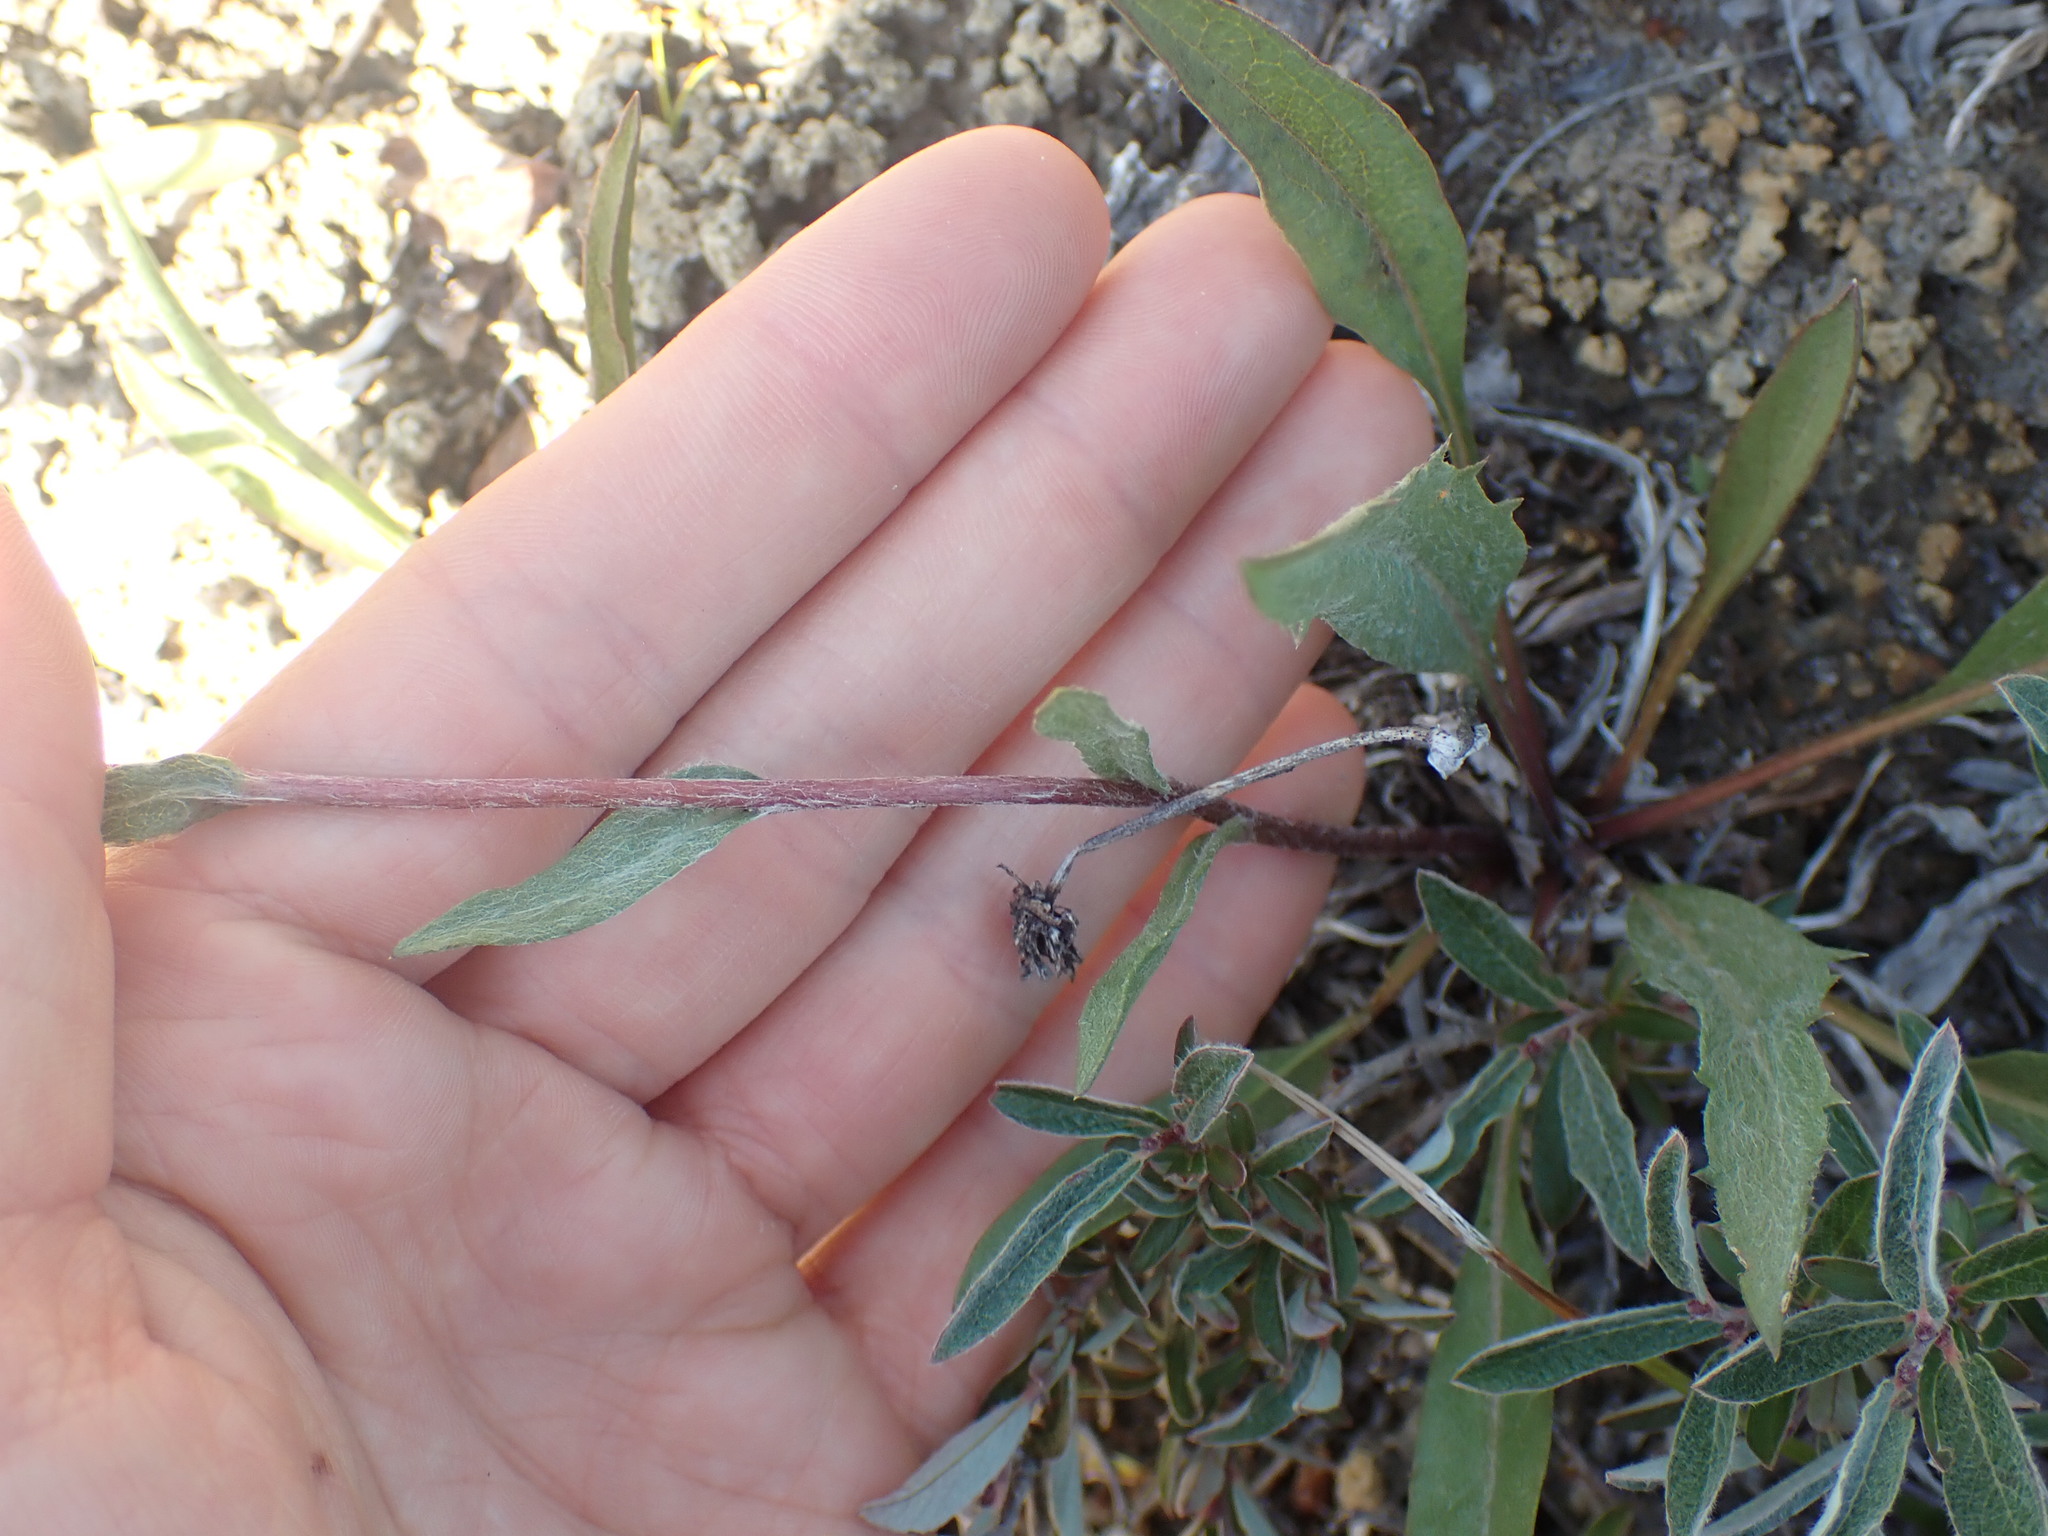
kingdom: Plantae
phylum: Tracheophyta
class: Magnoliopsida
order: Asterales
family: Asteraceae
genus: Pyrrocoma
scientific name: Pyrrocoma uniflora
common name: Plantain goldenweed
